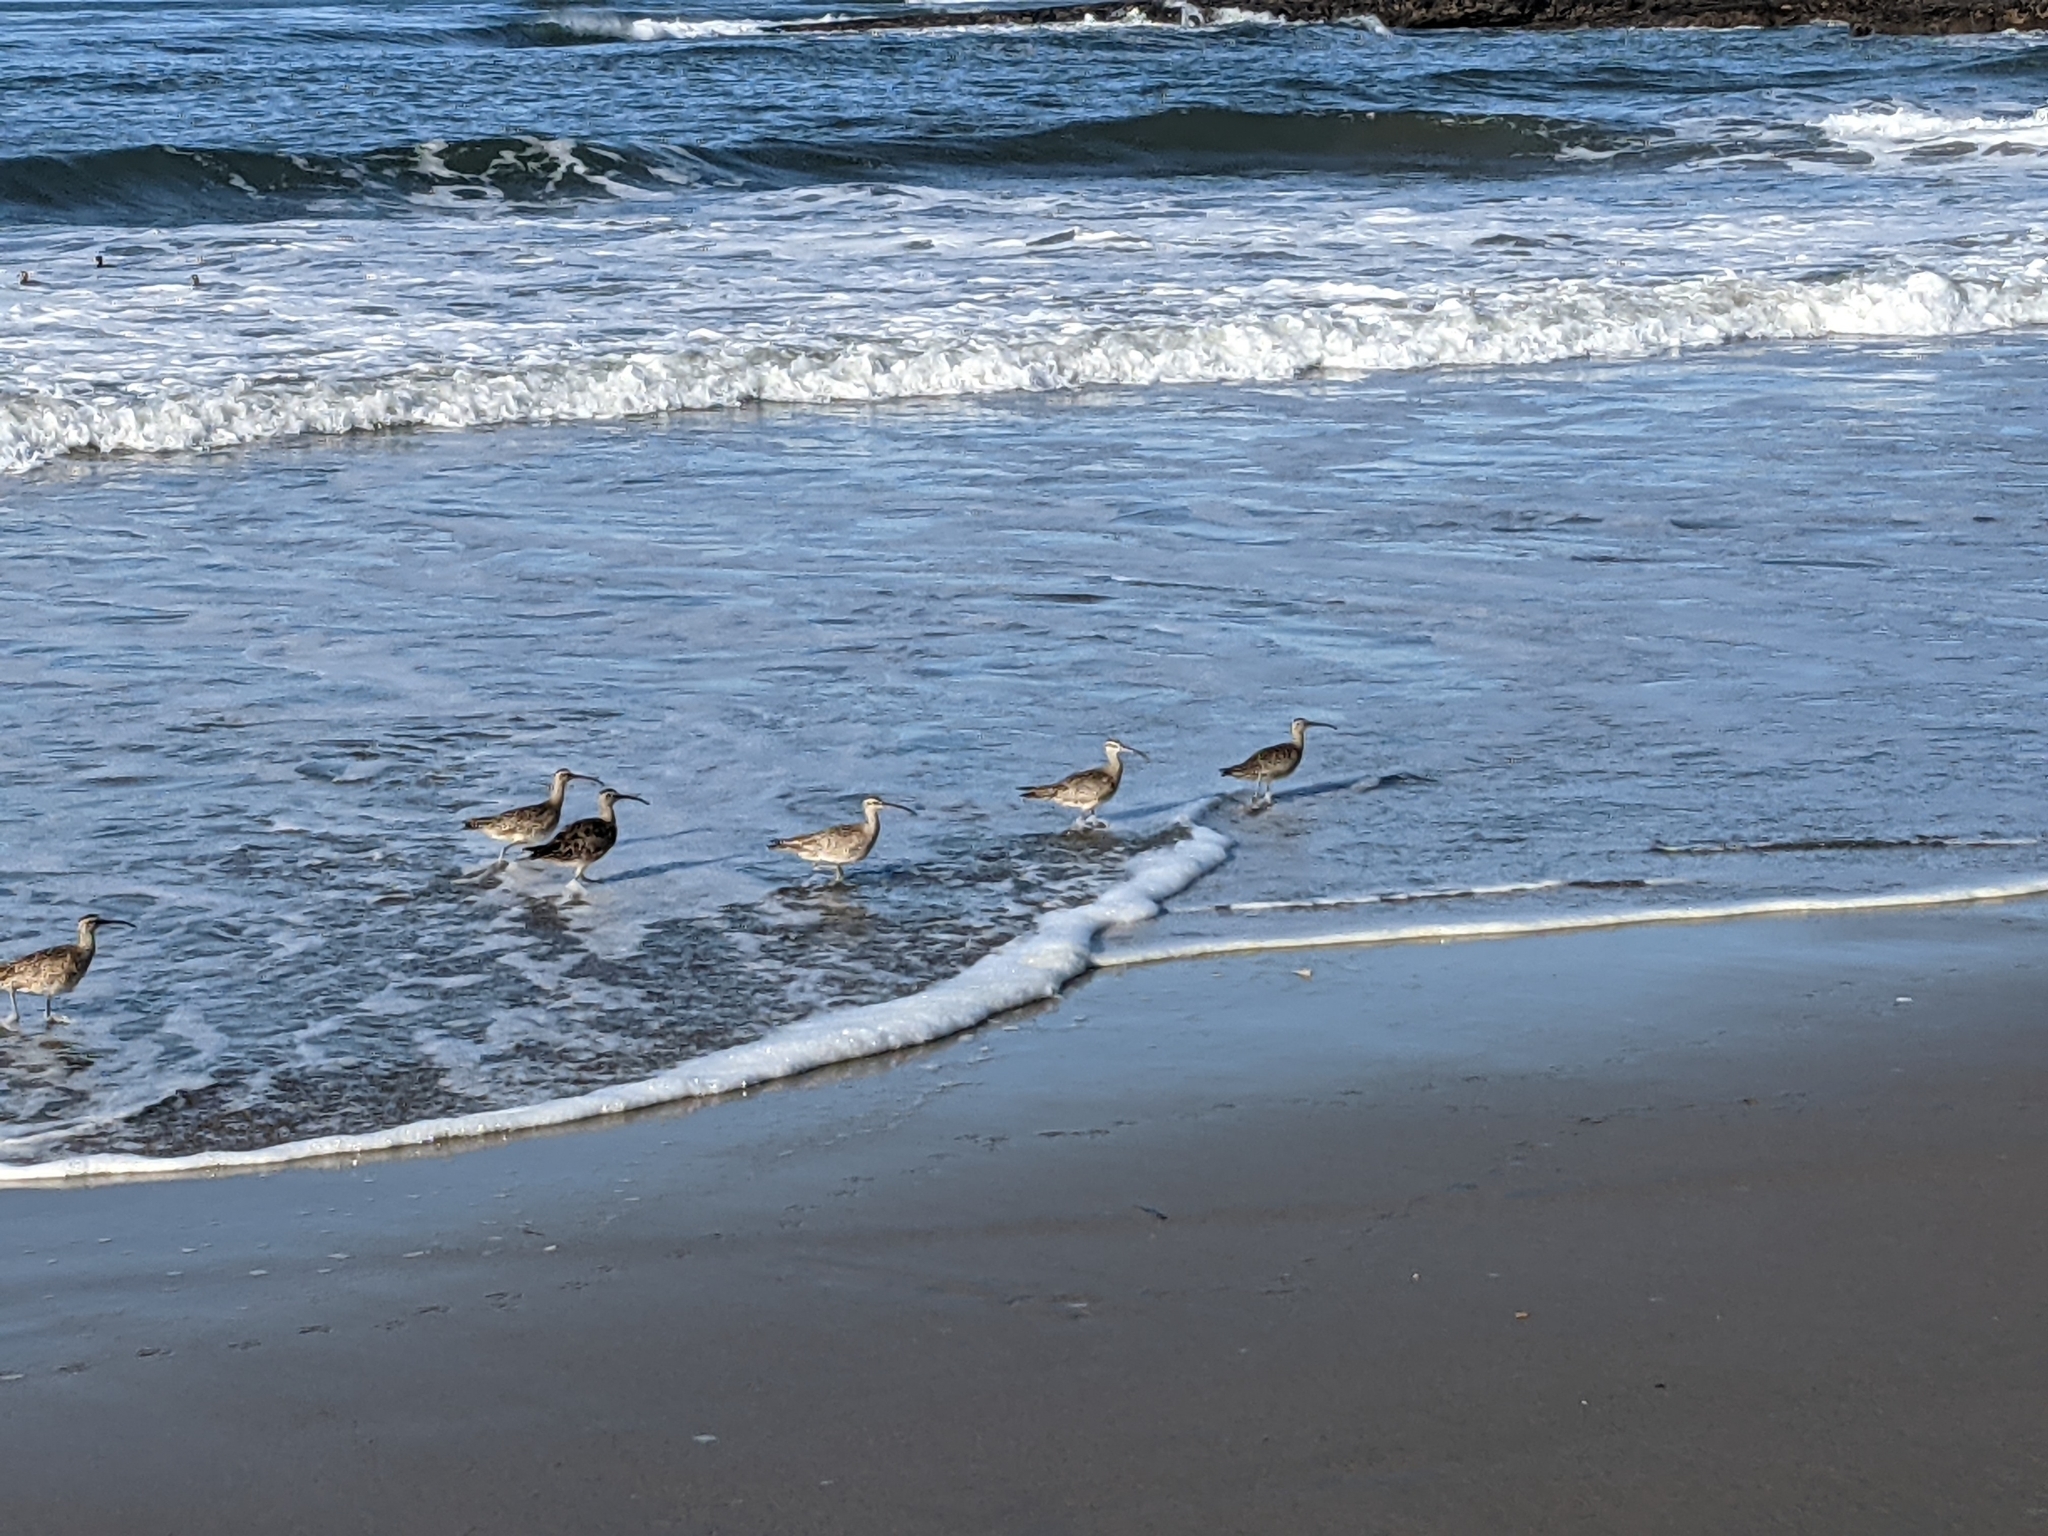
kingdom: Animalia
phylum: Chordata
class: Aves
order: Charadriiformes
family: Scolopacidae
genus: Numenius
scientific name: Numenius phaeopus
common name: Whimbrel
